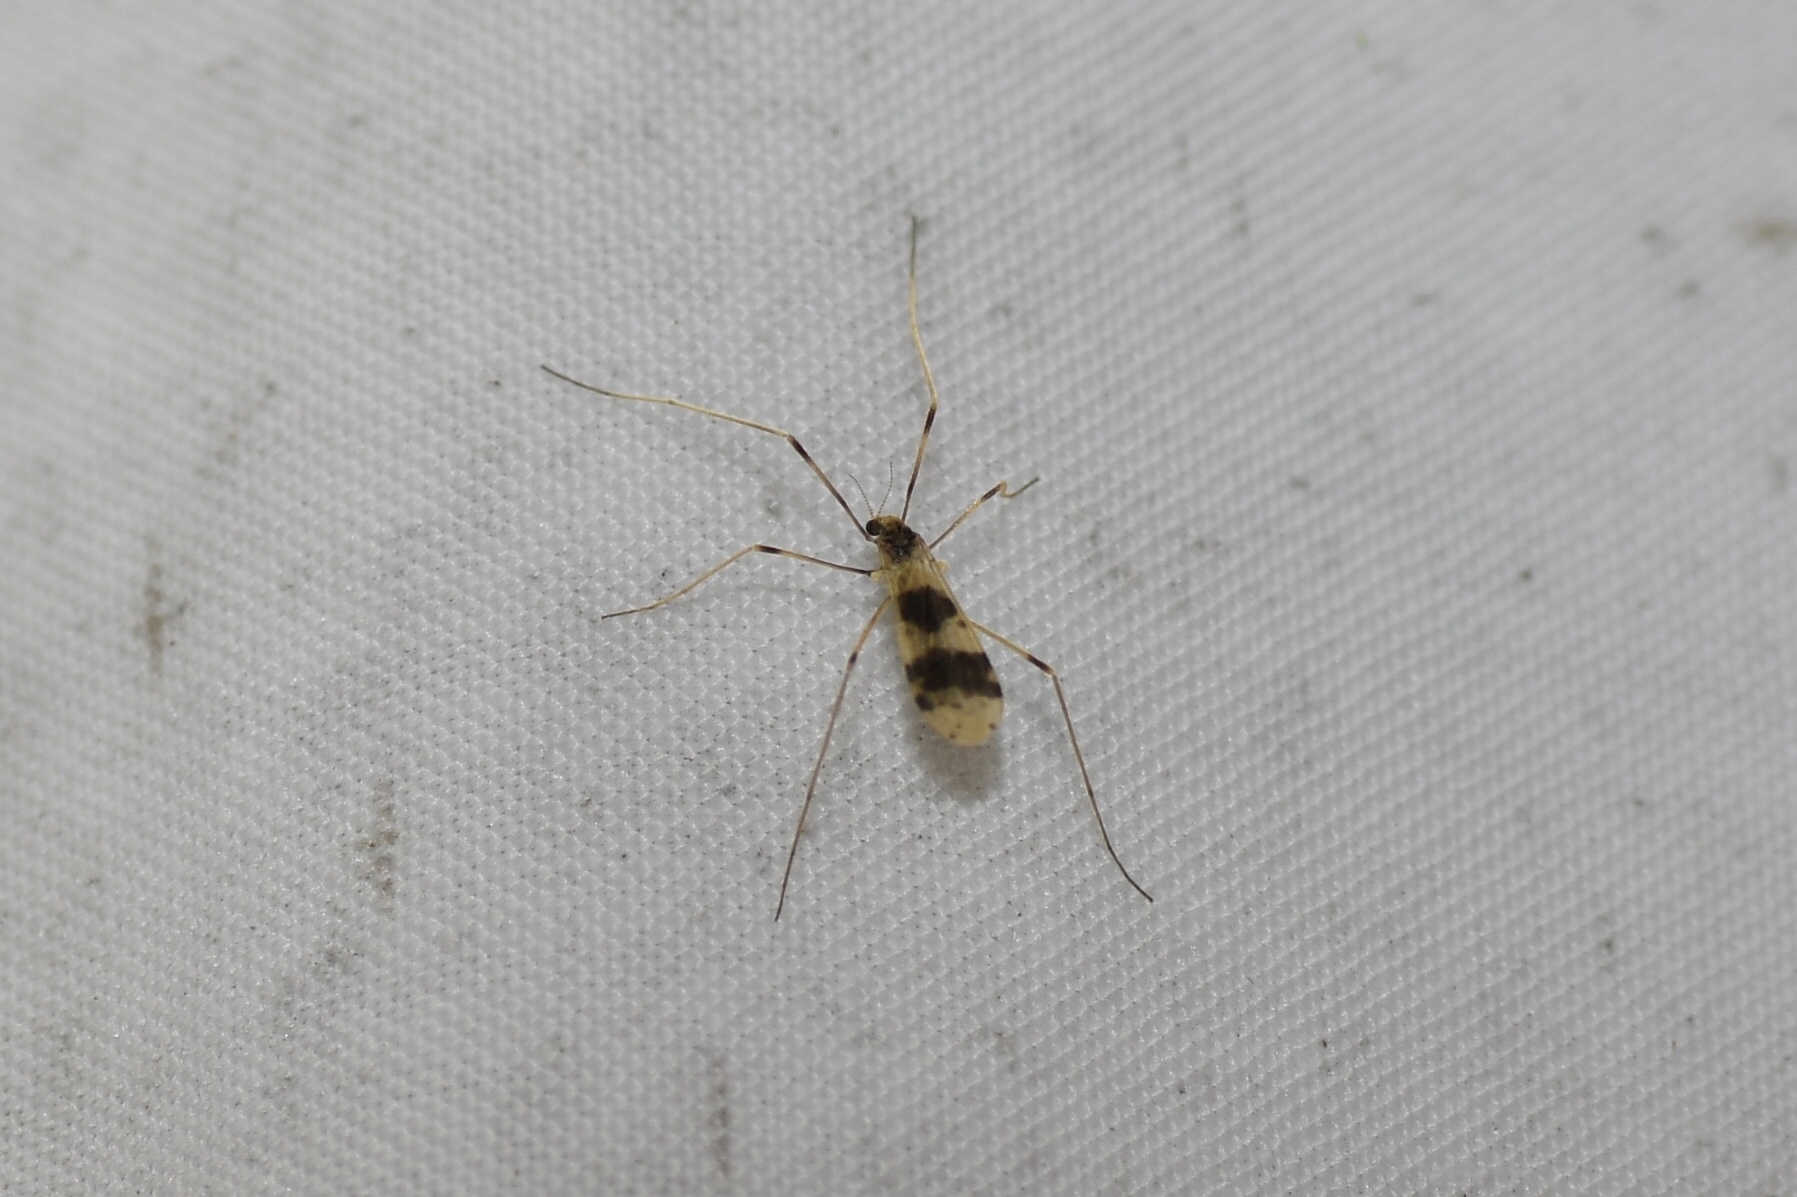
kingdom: Animalia
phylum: Arthropoda
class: Insecta
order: Diptera
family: Limoniidae
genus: Ilisia
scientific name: Ilisia venusta
